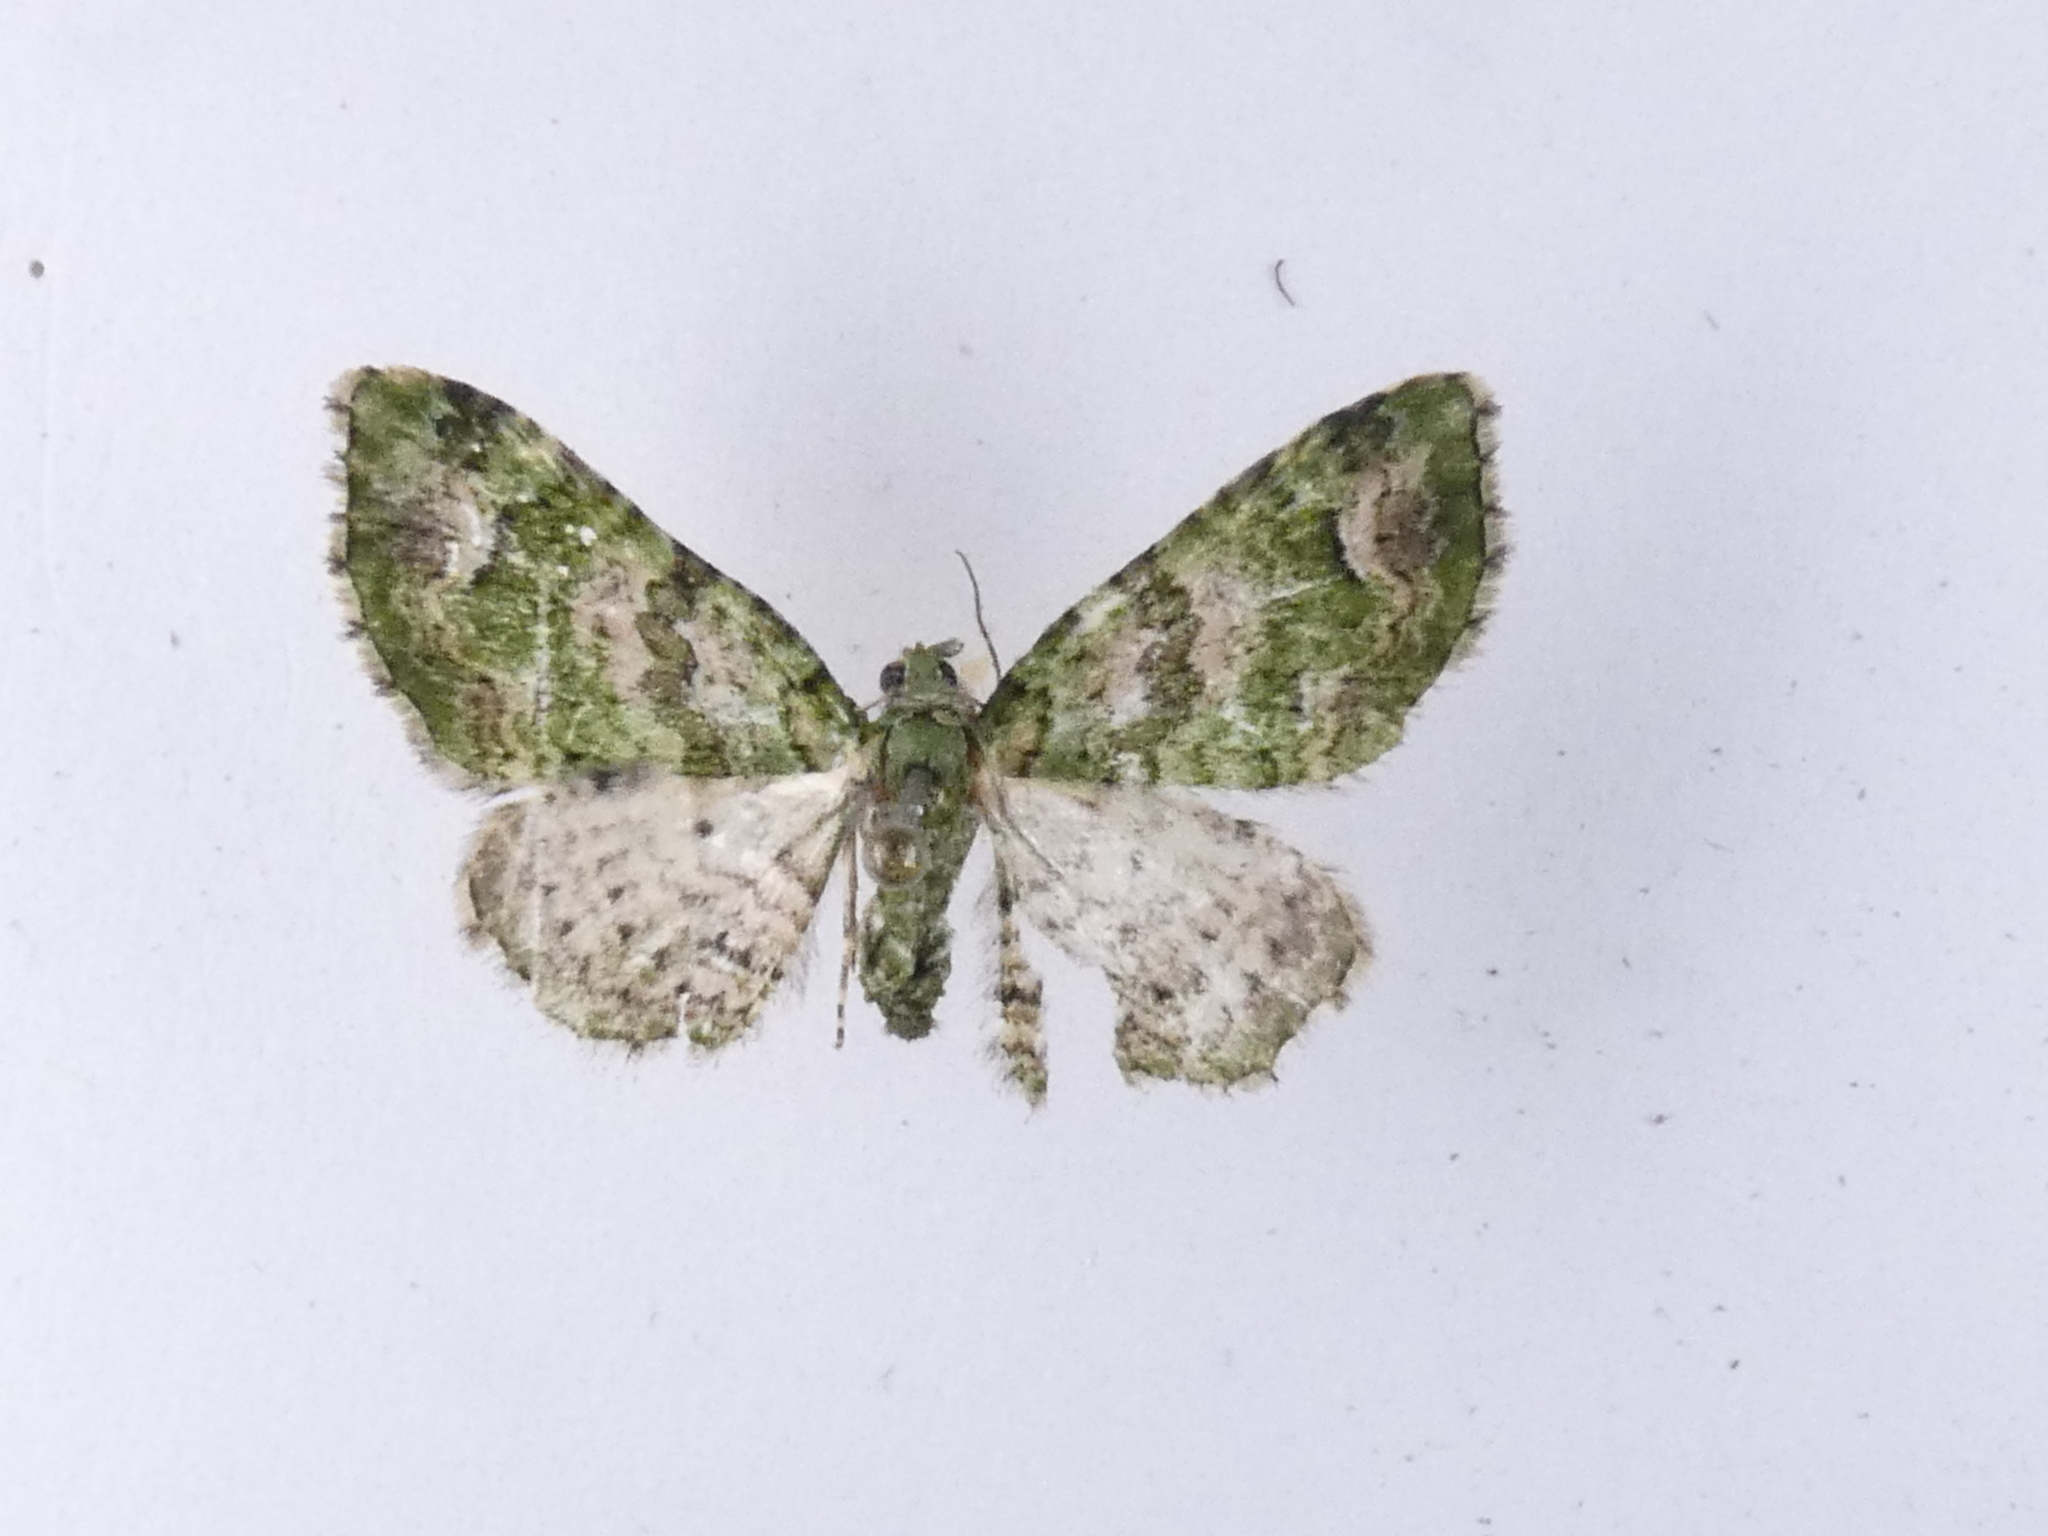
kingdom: Animalia
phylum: Arthropoda
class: Insecta
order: Lepidoptera
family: Geometridae
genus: Pasiphila
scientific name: Pasiphila semochlora
